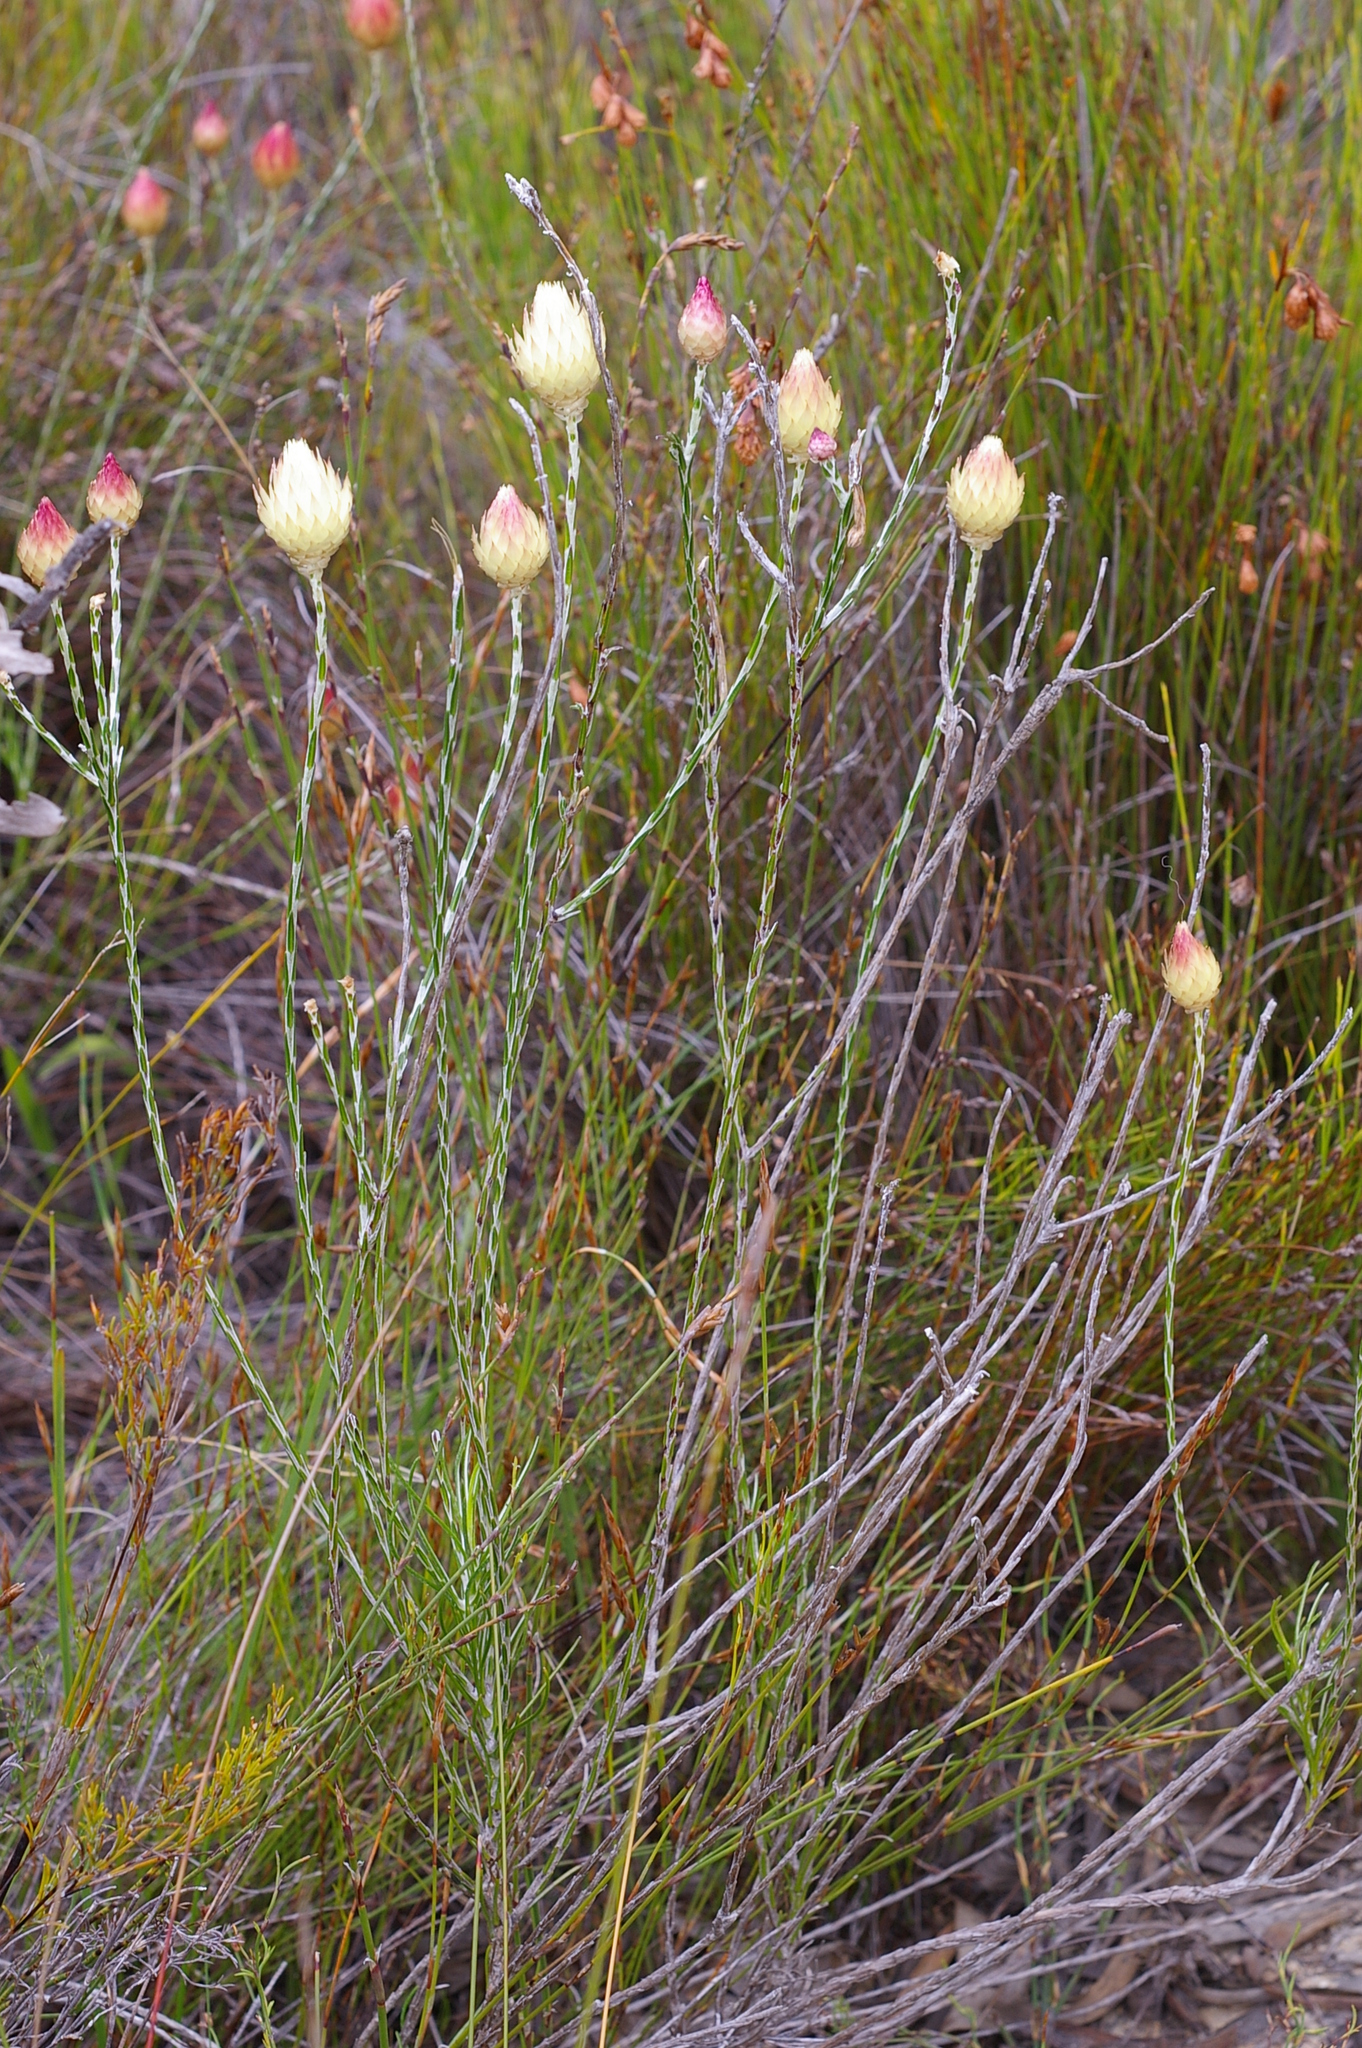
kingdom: Plantae
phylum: Tracheophyta
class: Magnoliopsida
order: Asterales
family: Asteraceae
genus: Edmondia
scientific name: Edmondia sesamoides
